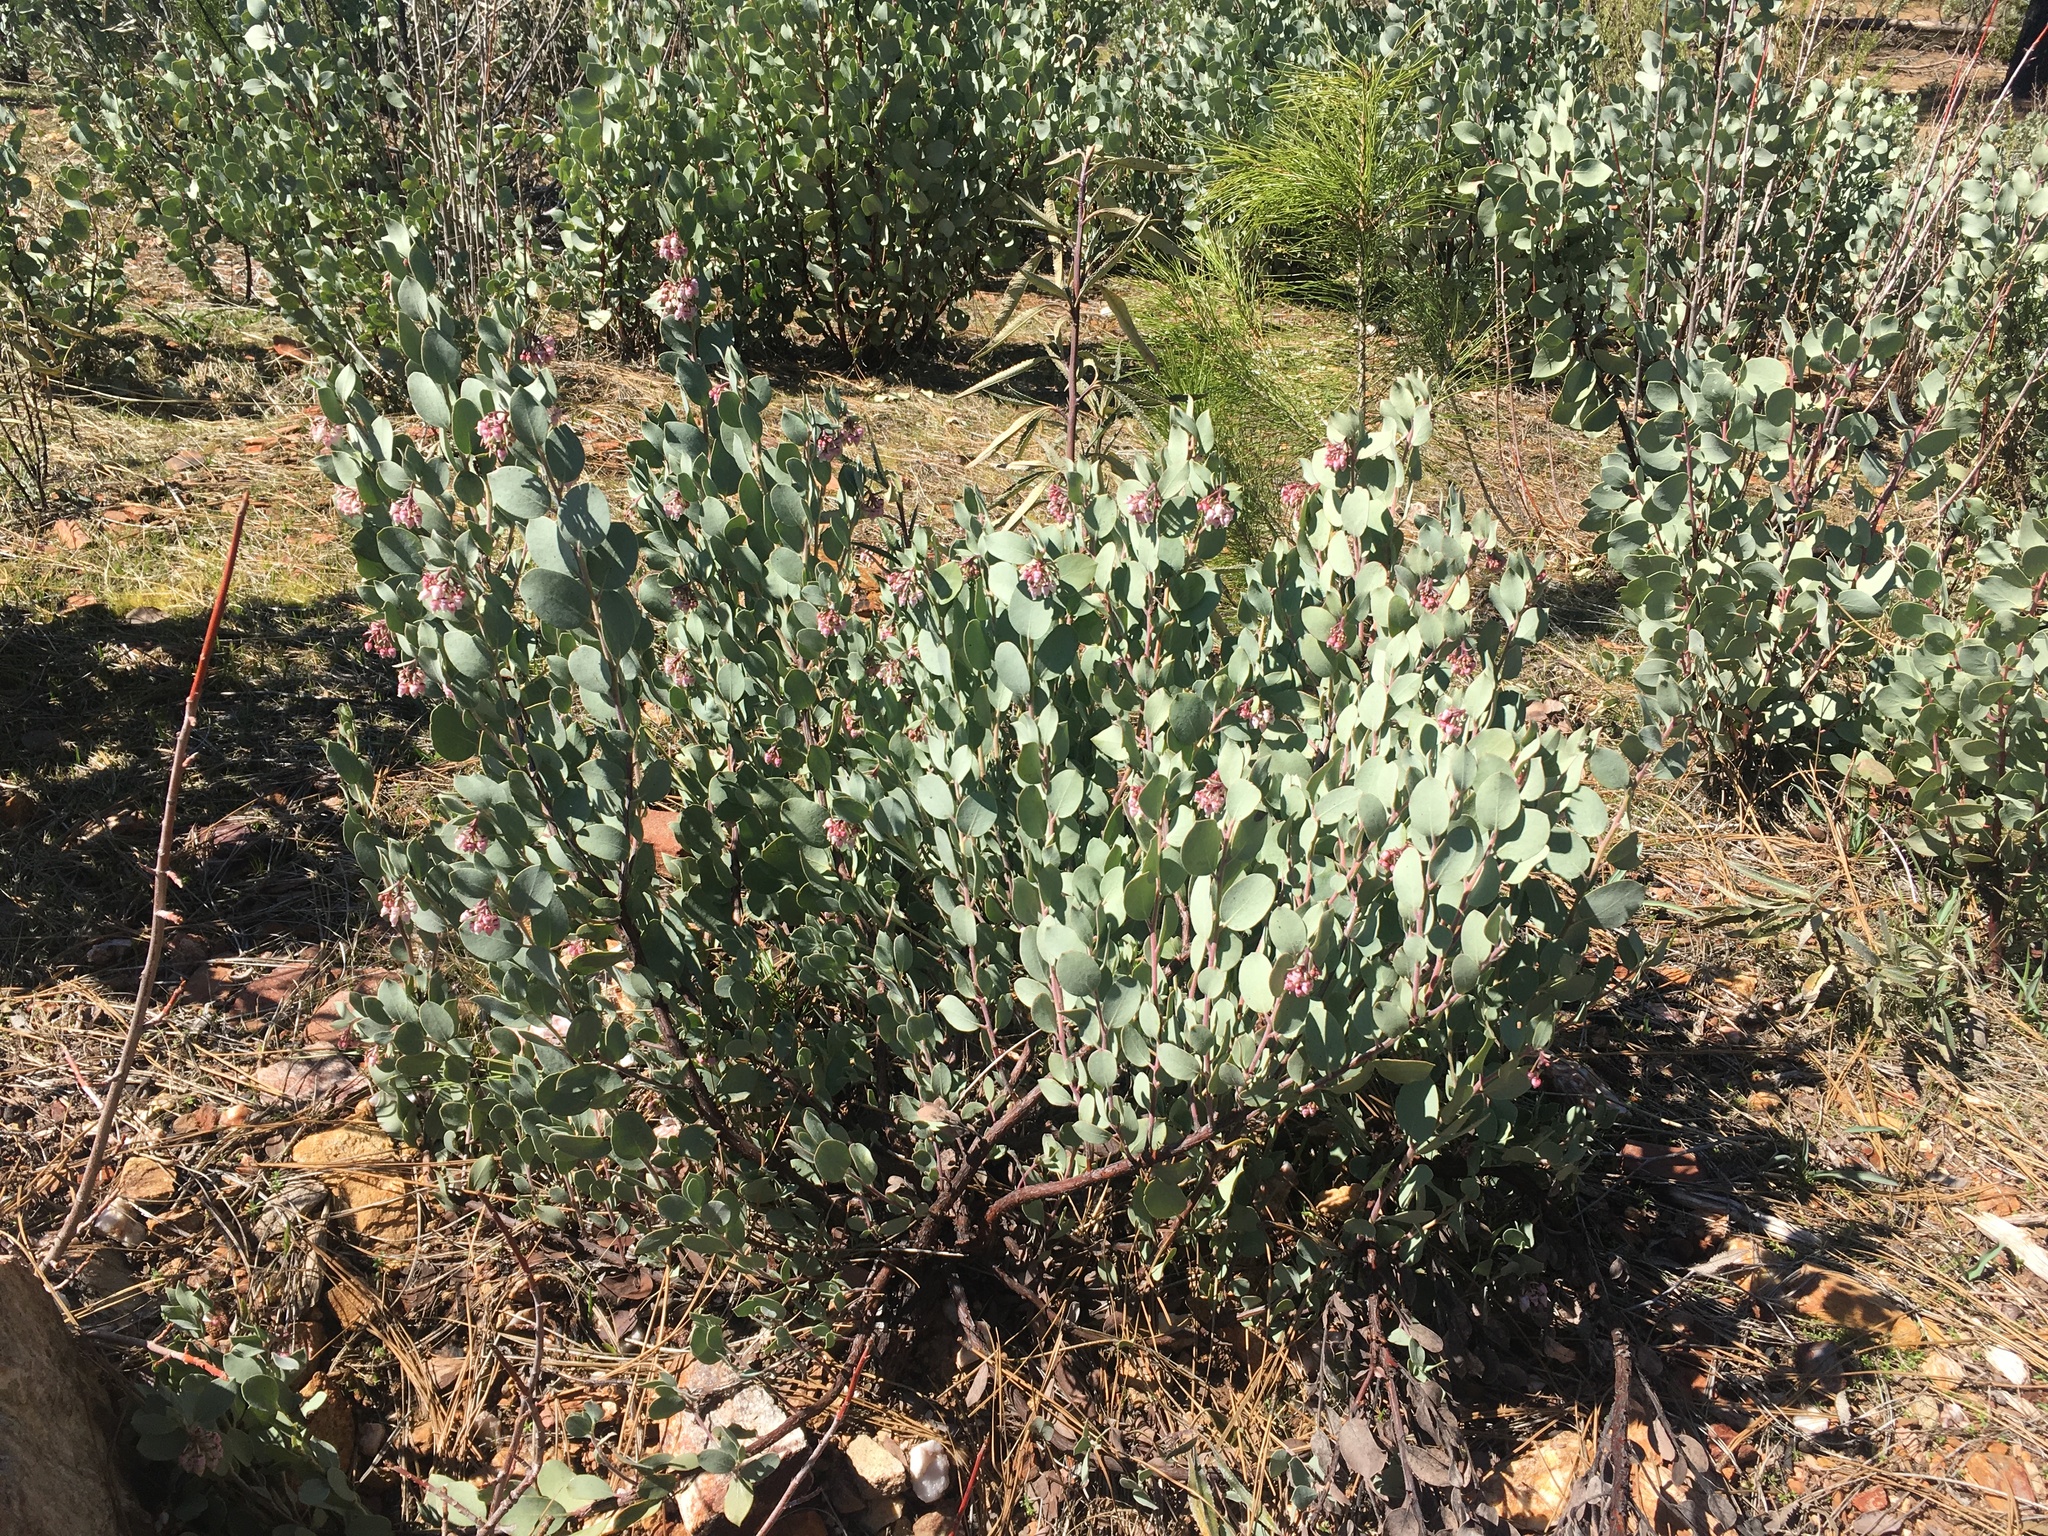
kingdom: Plantae
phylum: Tracheophyta
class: Magnoliopsida
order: Ericales
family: Ericaceae
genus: Arctostaphylos
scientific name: Arctostaphylos nissenana
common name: Nissenan manzanita
